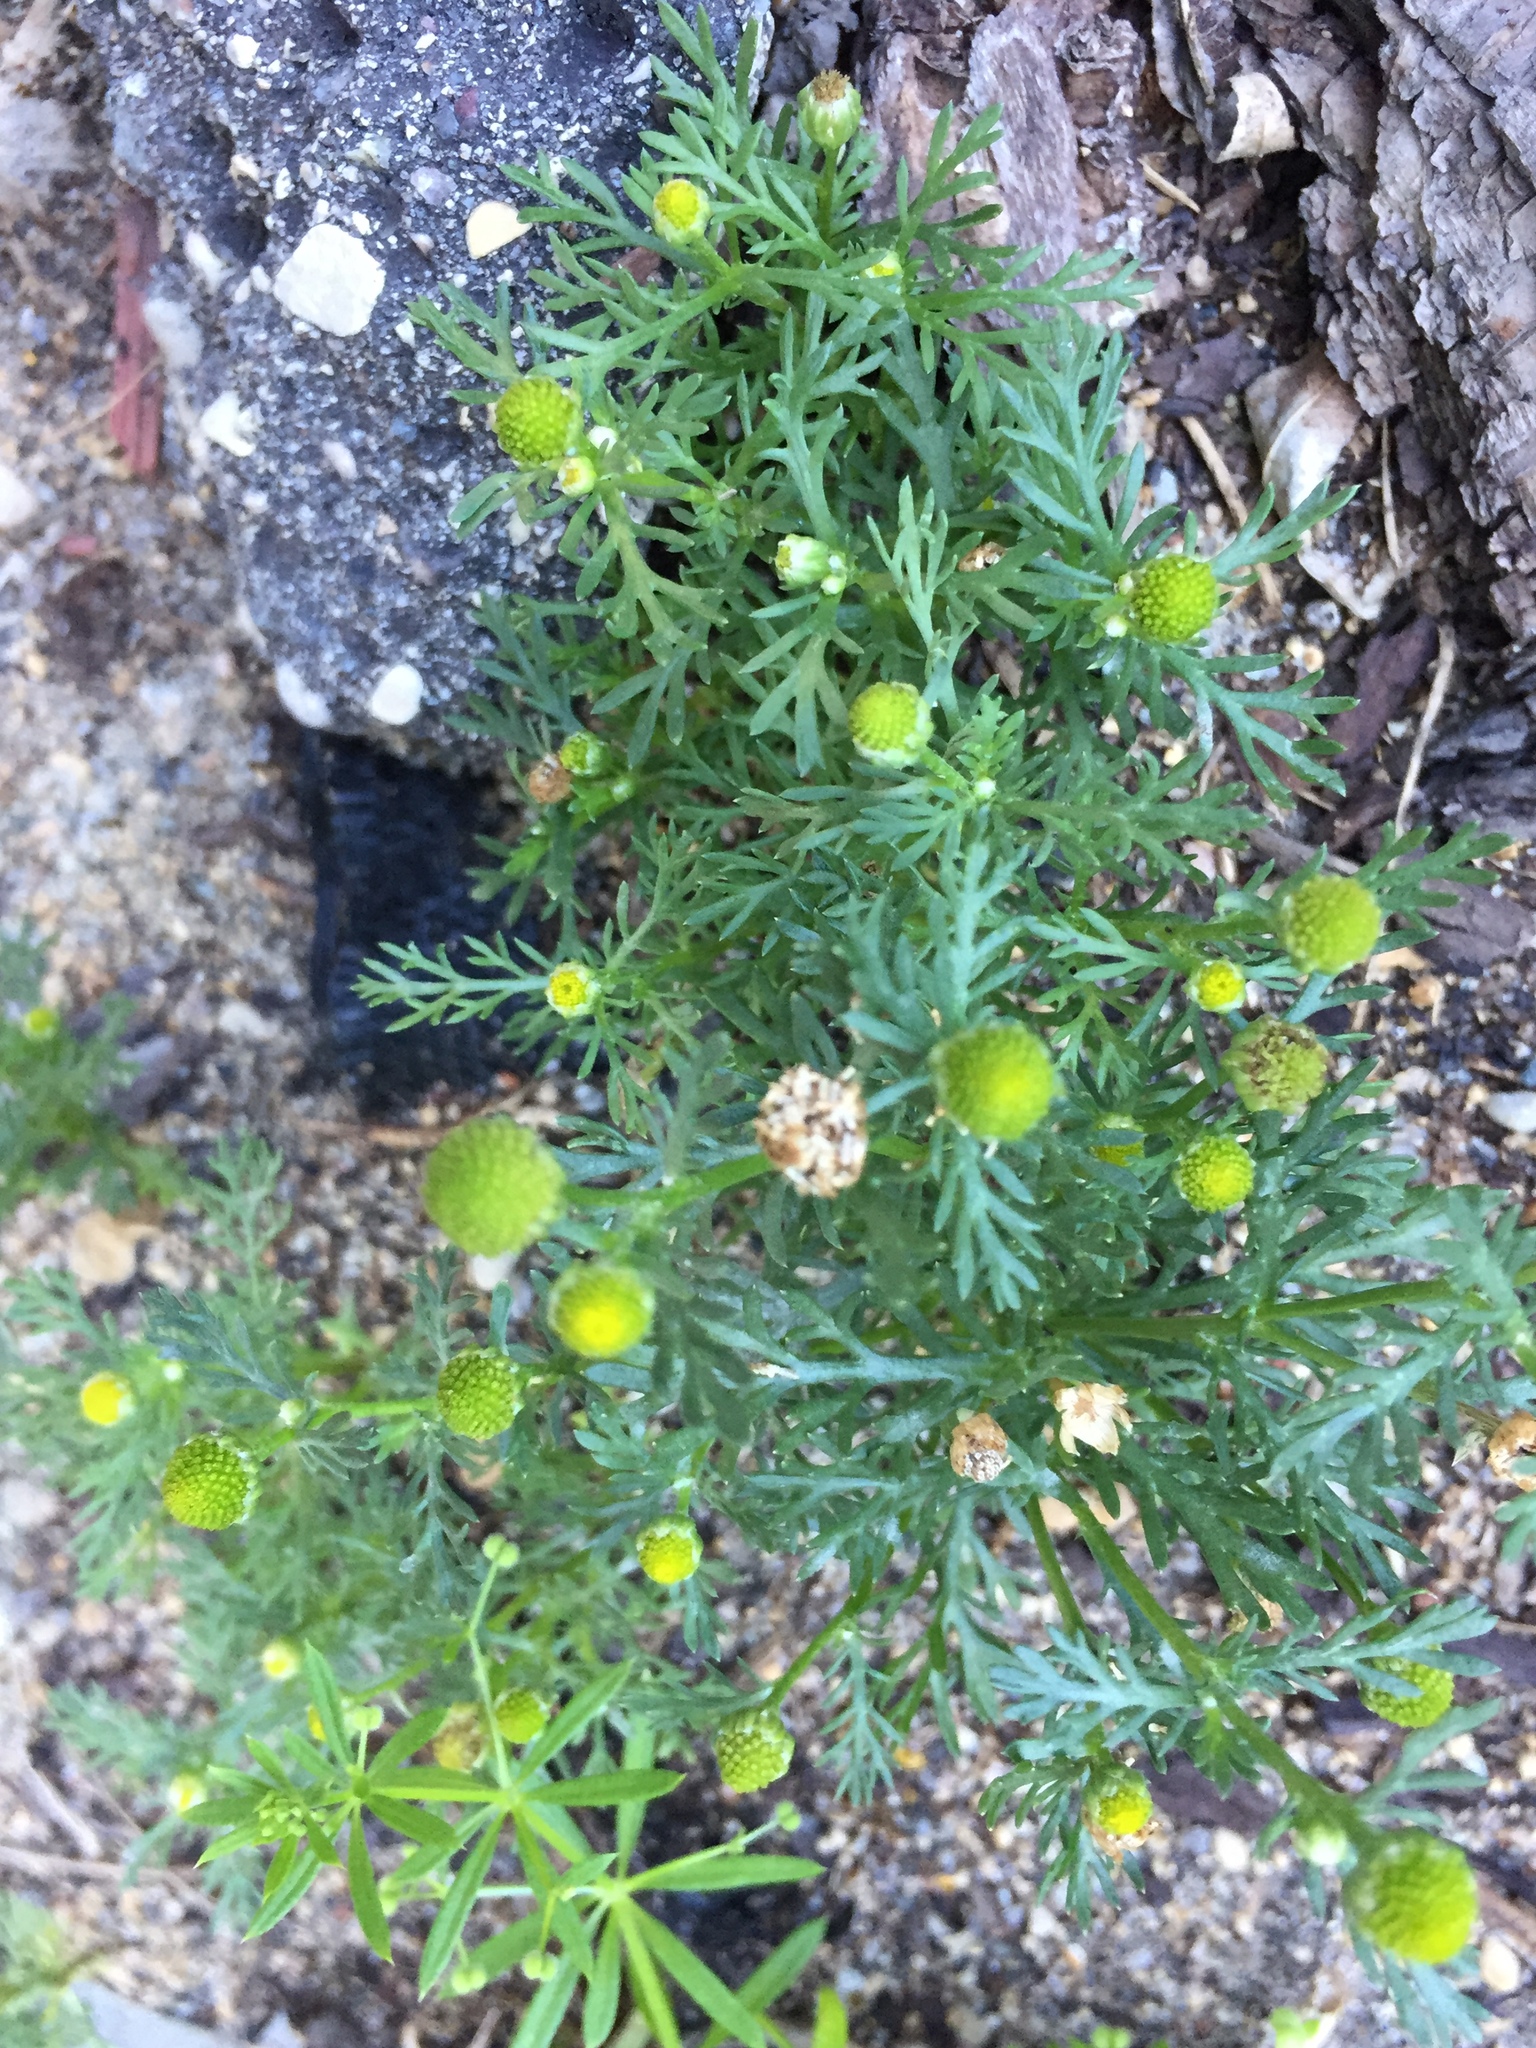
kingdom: Plantae
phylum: Tracheophyta
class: Magnoliopsida
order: Asterales
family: Asteraceae
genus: Matricaria
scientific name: Matricaria discoidea
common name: Disc mayweed
